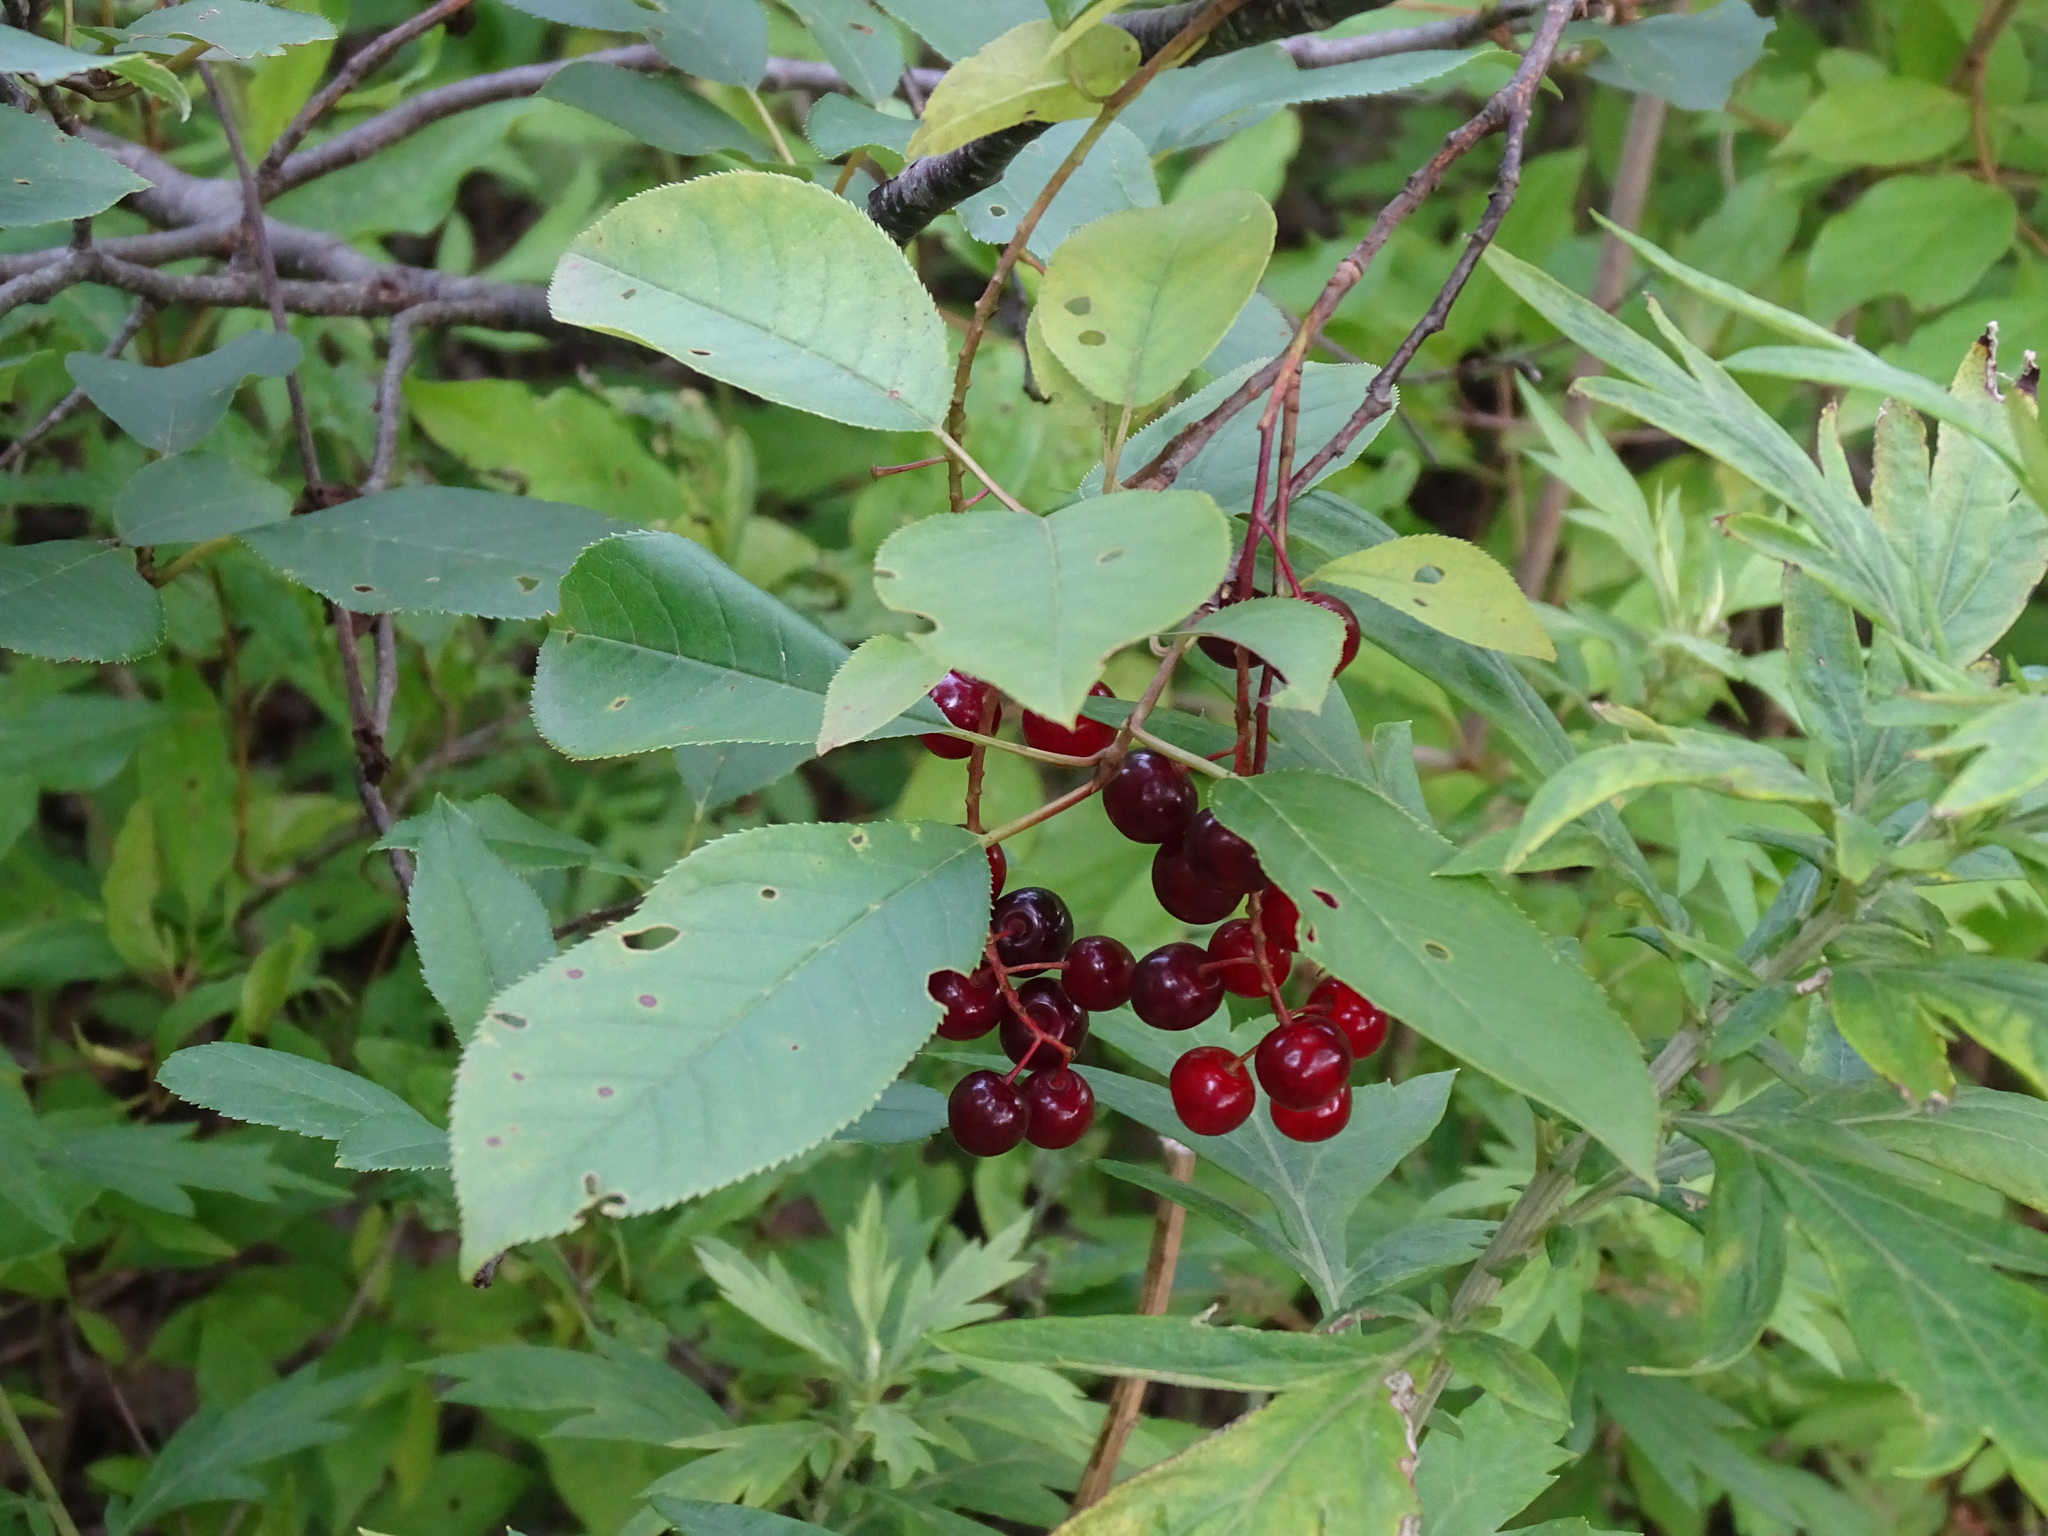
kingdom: Plantae
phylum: Tracheophyta
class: Magnoliopsida
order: Rosales
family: Rosaceae
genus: Prunus
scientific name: Prunus virginiana
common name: Chokecherry
